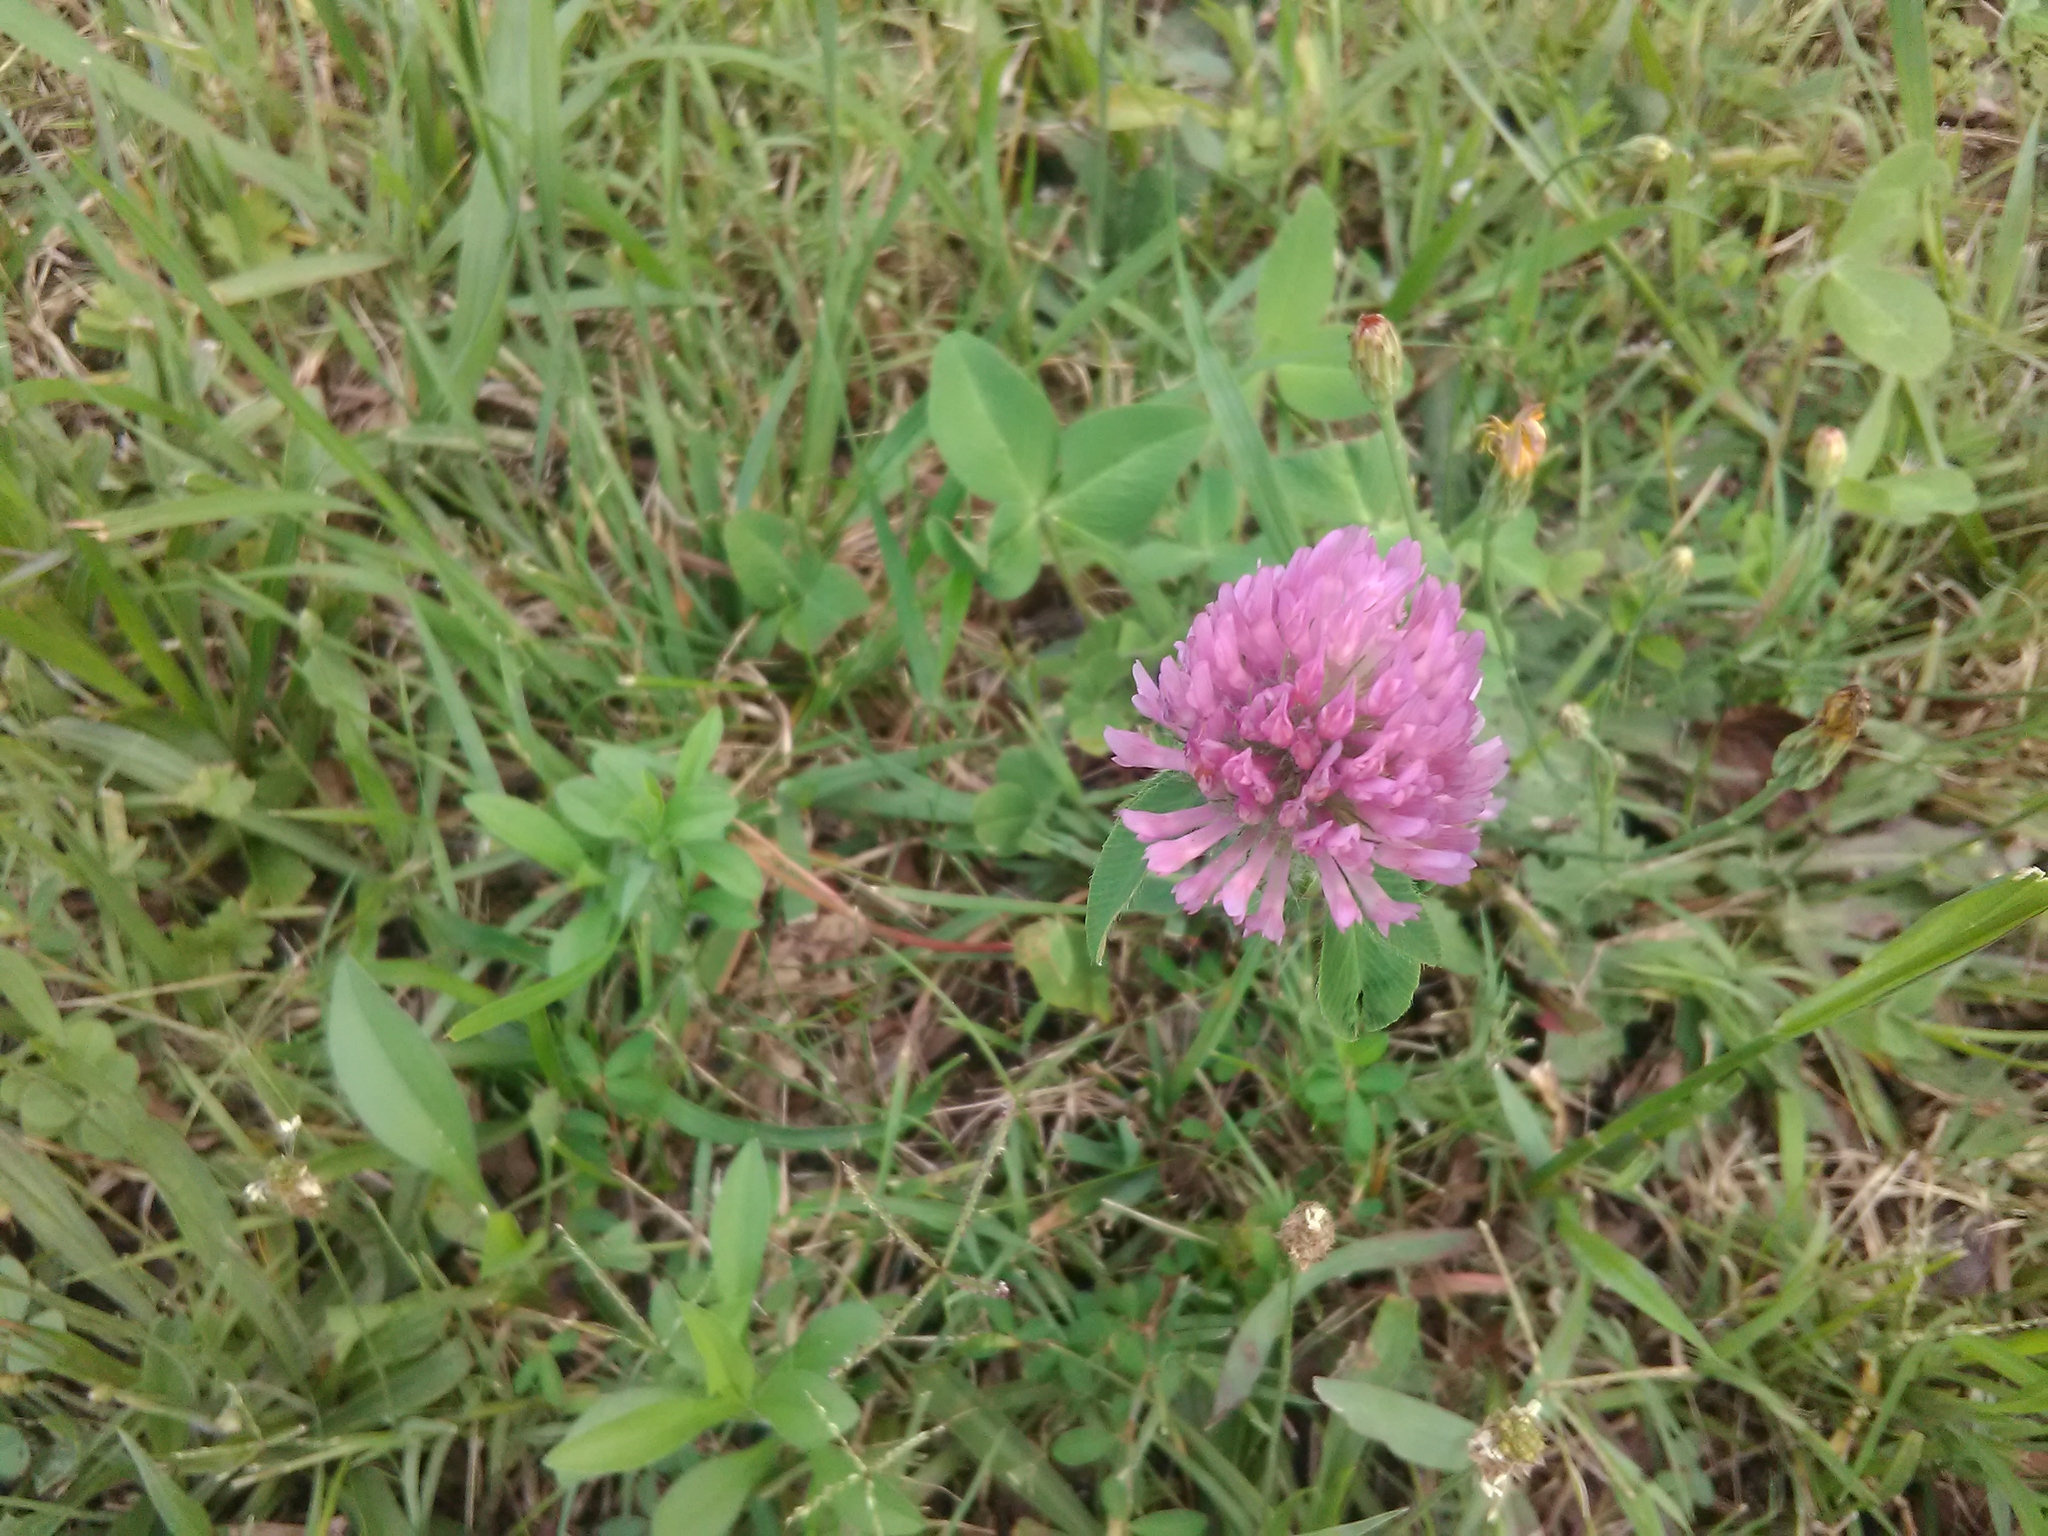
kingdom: Plantae
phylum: Tracheophyta
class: Magnoliopsida
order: Fabales
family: Fabaceae
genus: Trifolium
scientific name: Trifolium pratense
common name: Red clover
